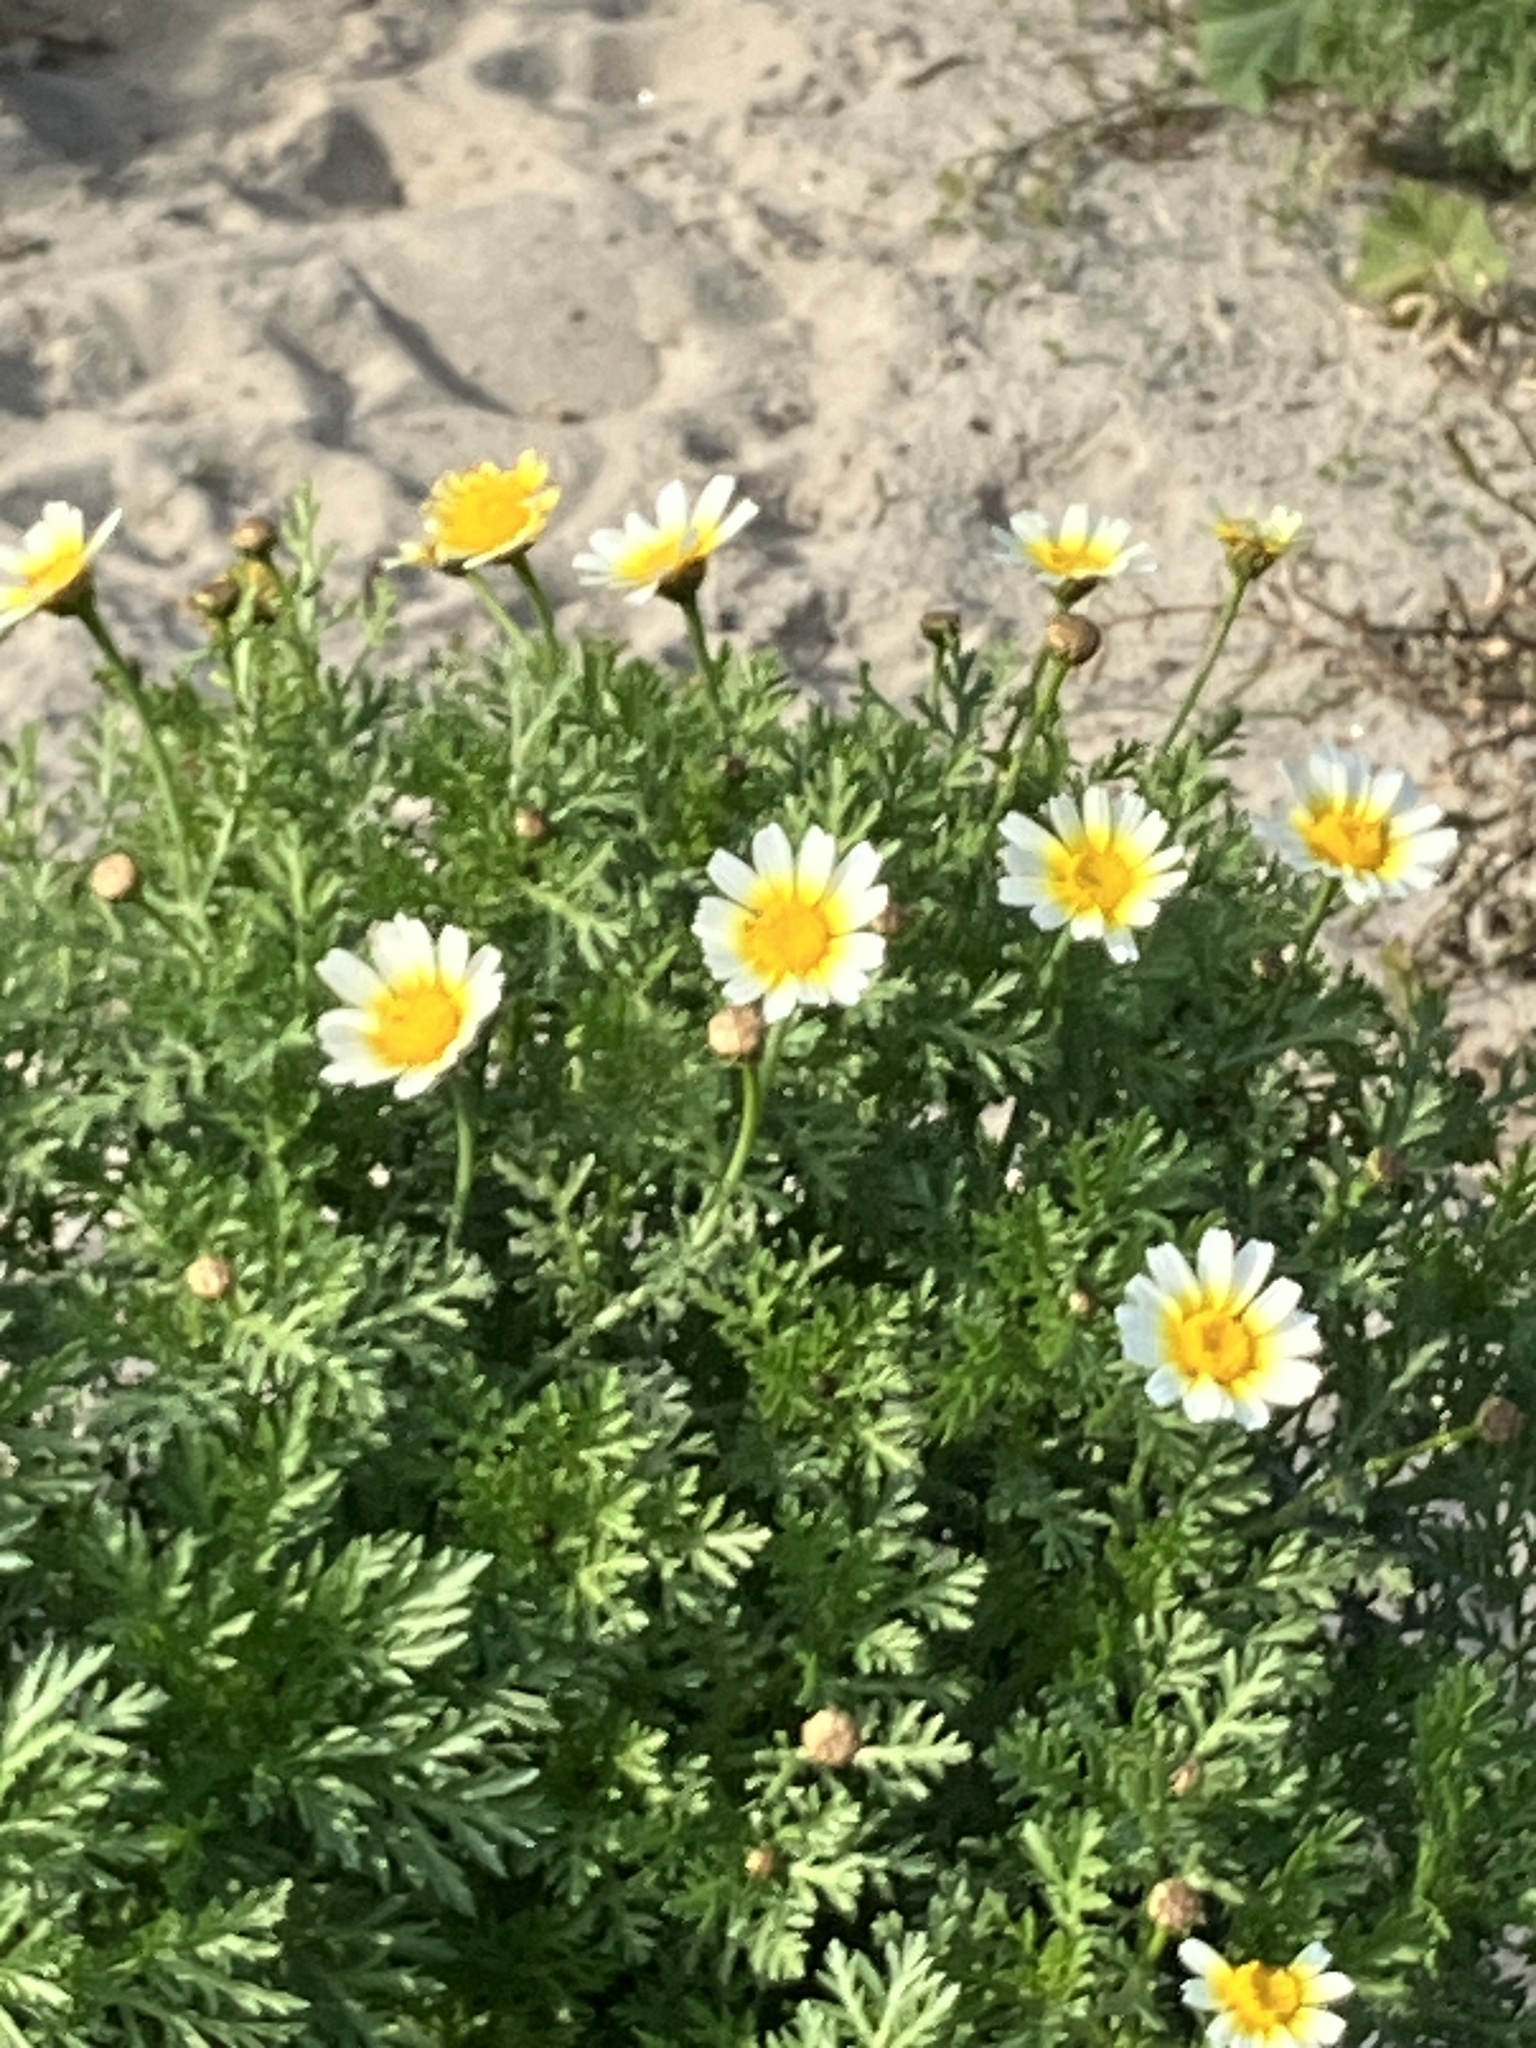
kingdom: Plantae
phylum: Tracheophyta
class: Magnoliopsida
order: Asterales
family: Asteraceae
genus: Glebionis
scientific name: Glebionis coronaria
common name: Crowndaisy
